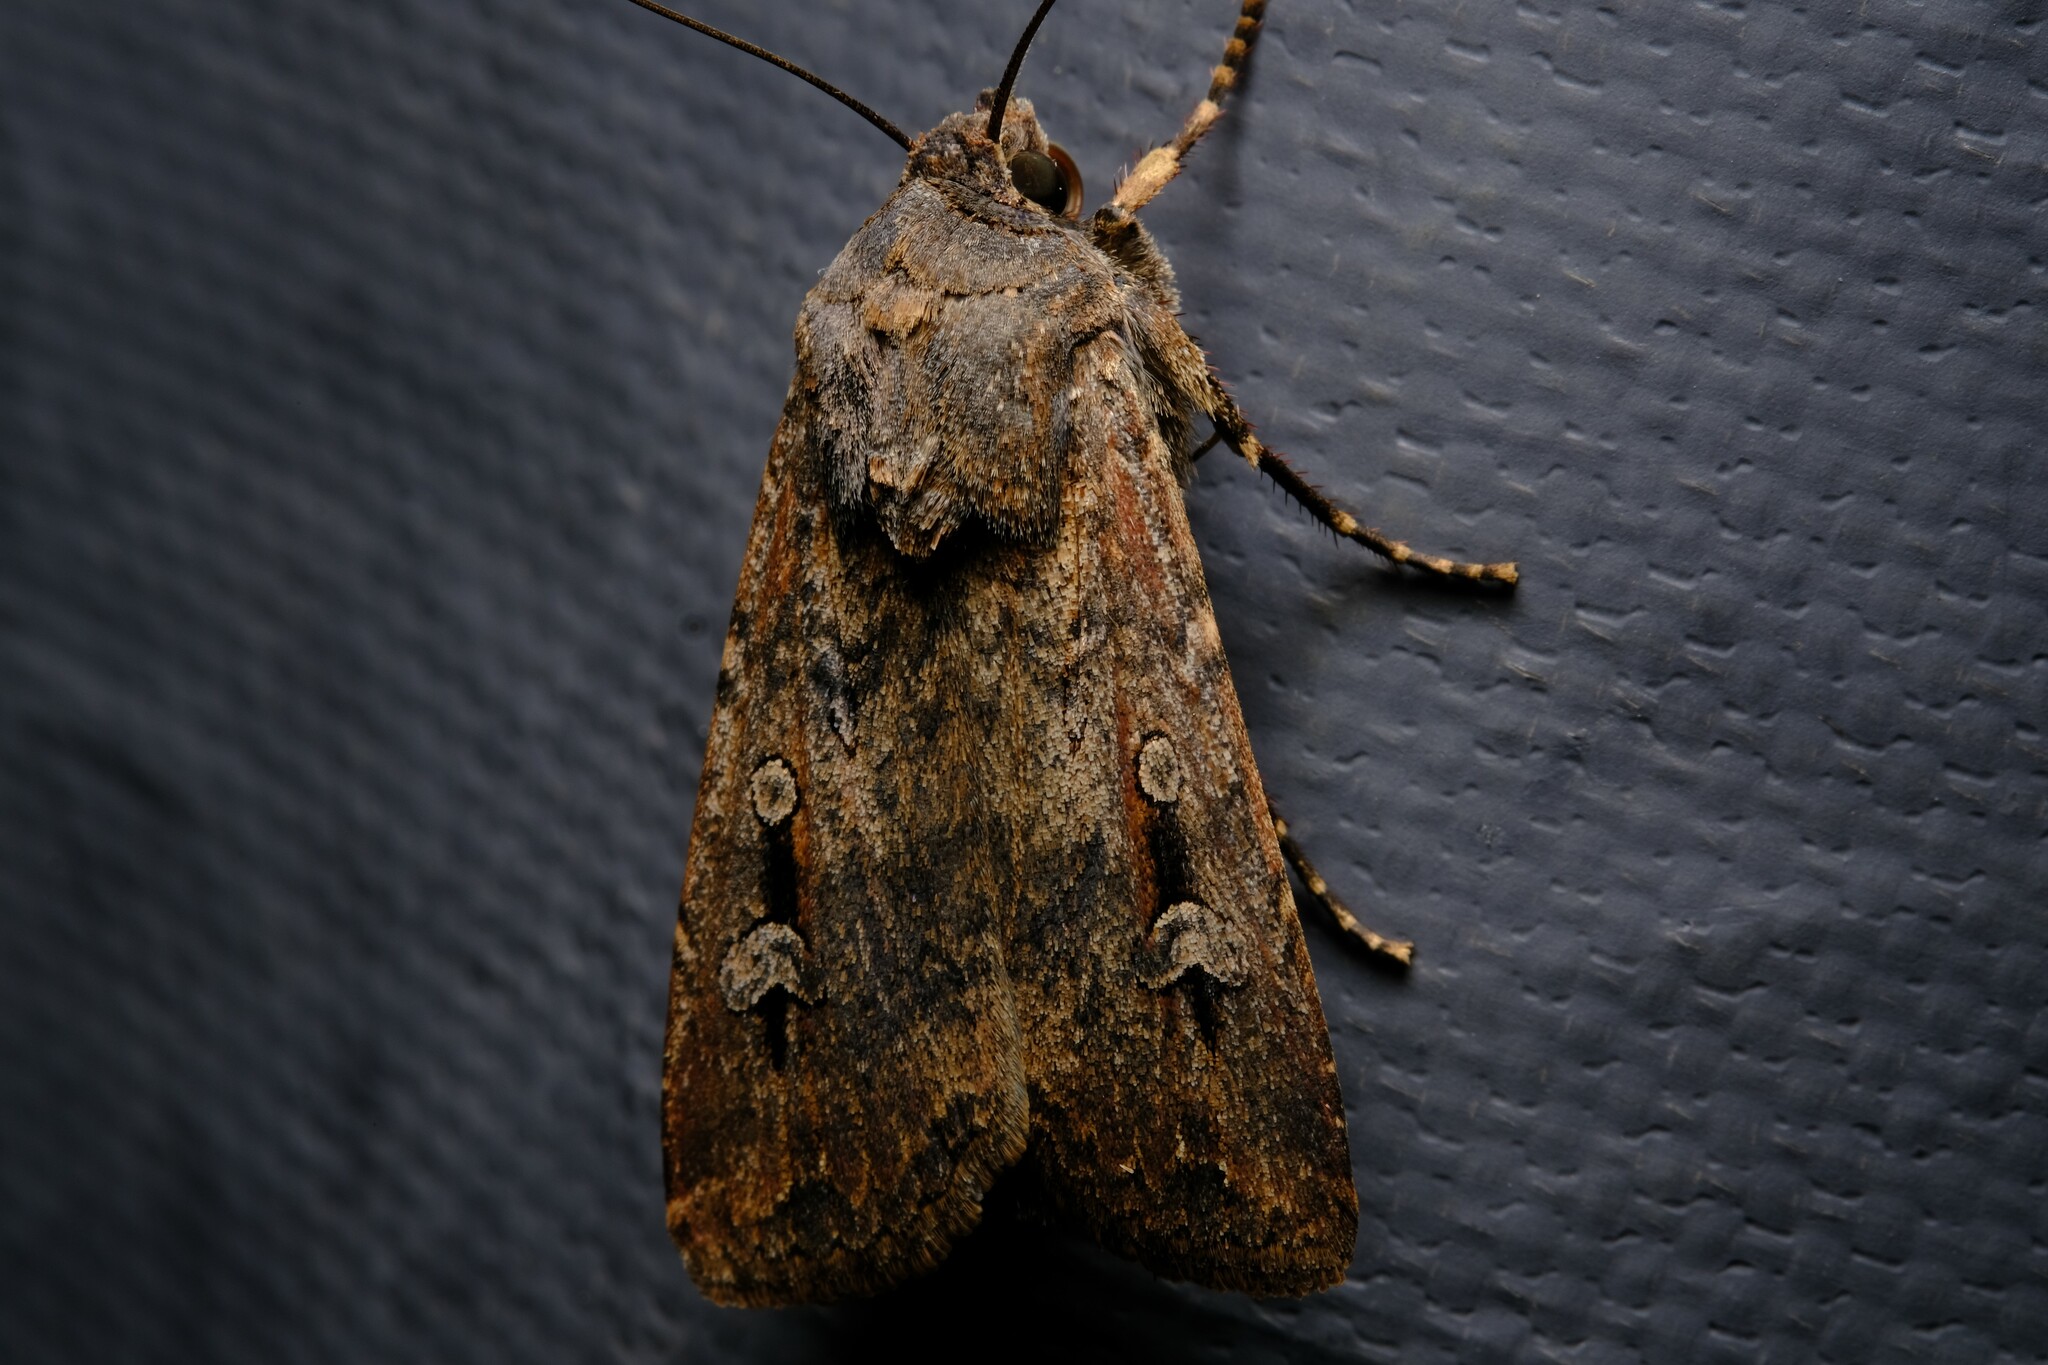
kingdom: Animalia
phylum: Arthropoda
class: Insecta
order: Lepidoptera
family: Noctuidae
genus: Agrotis
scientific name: Agrotis infusa
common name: Bogong moth
